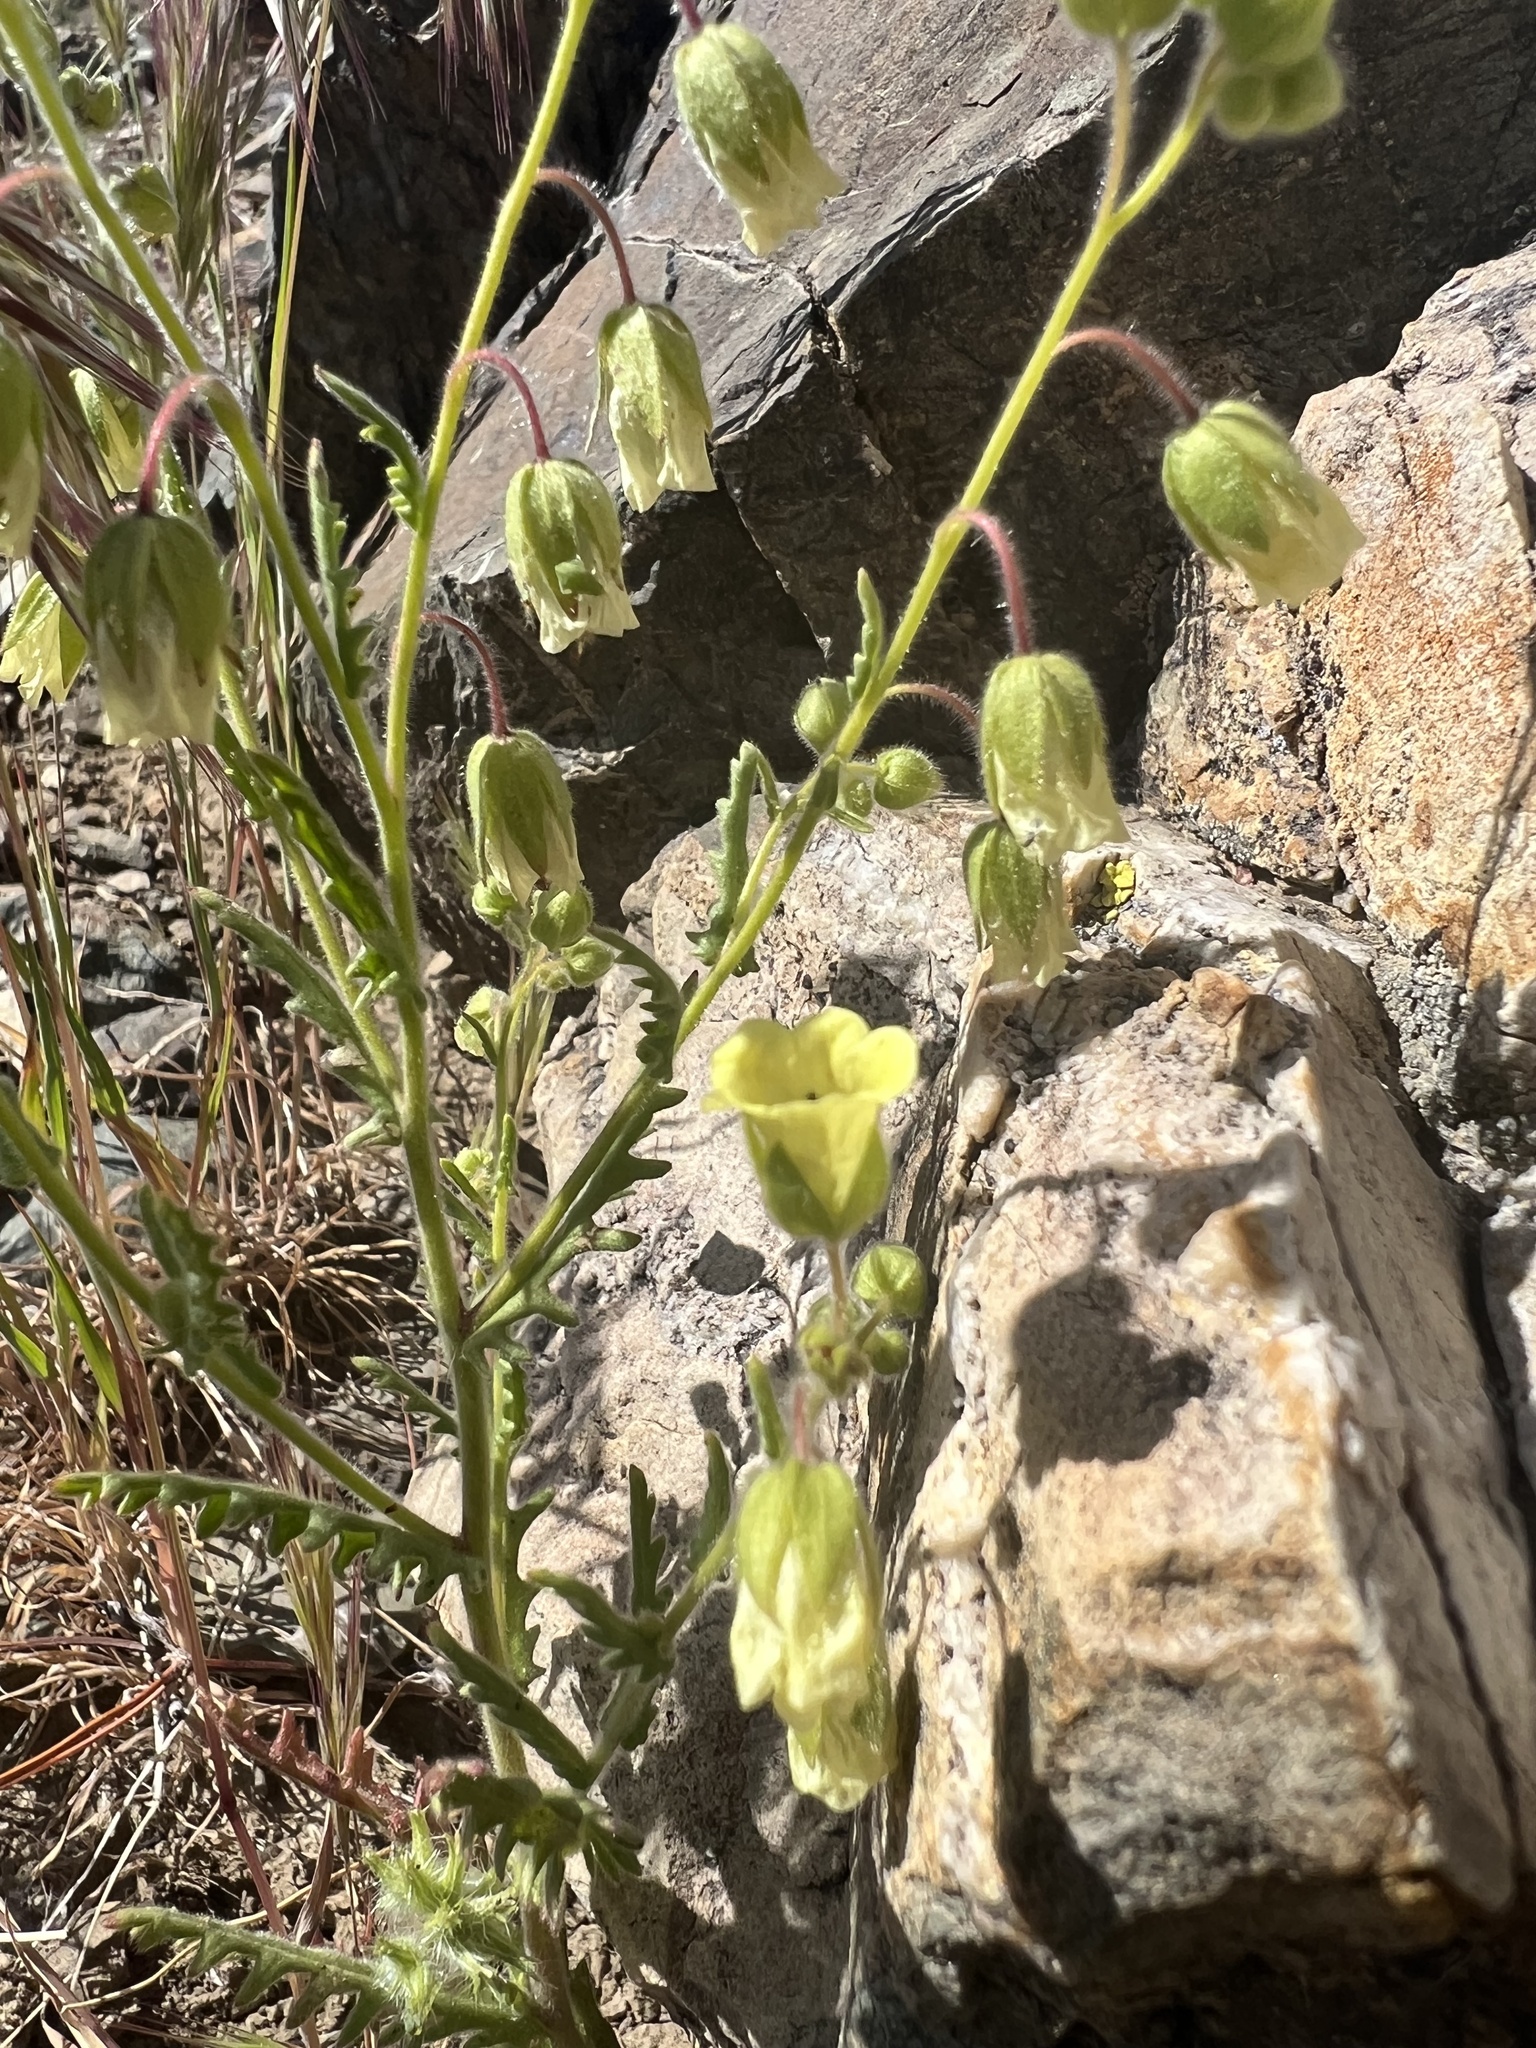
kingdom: Plantae
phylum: Tracheophyta
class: Magnoliopsida
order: Boraginales
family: Hydrophyllaceae
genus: Emmenanthe
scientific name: Emmenanthe penduliflora
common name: Whispering-bells
